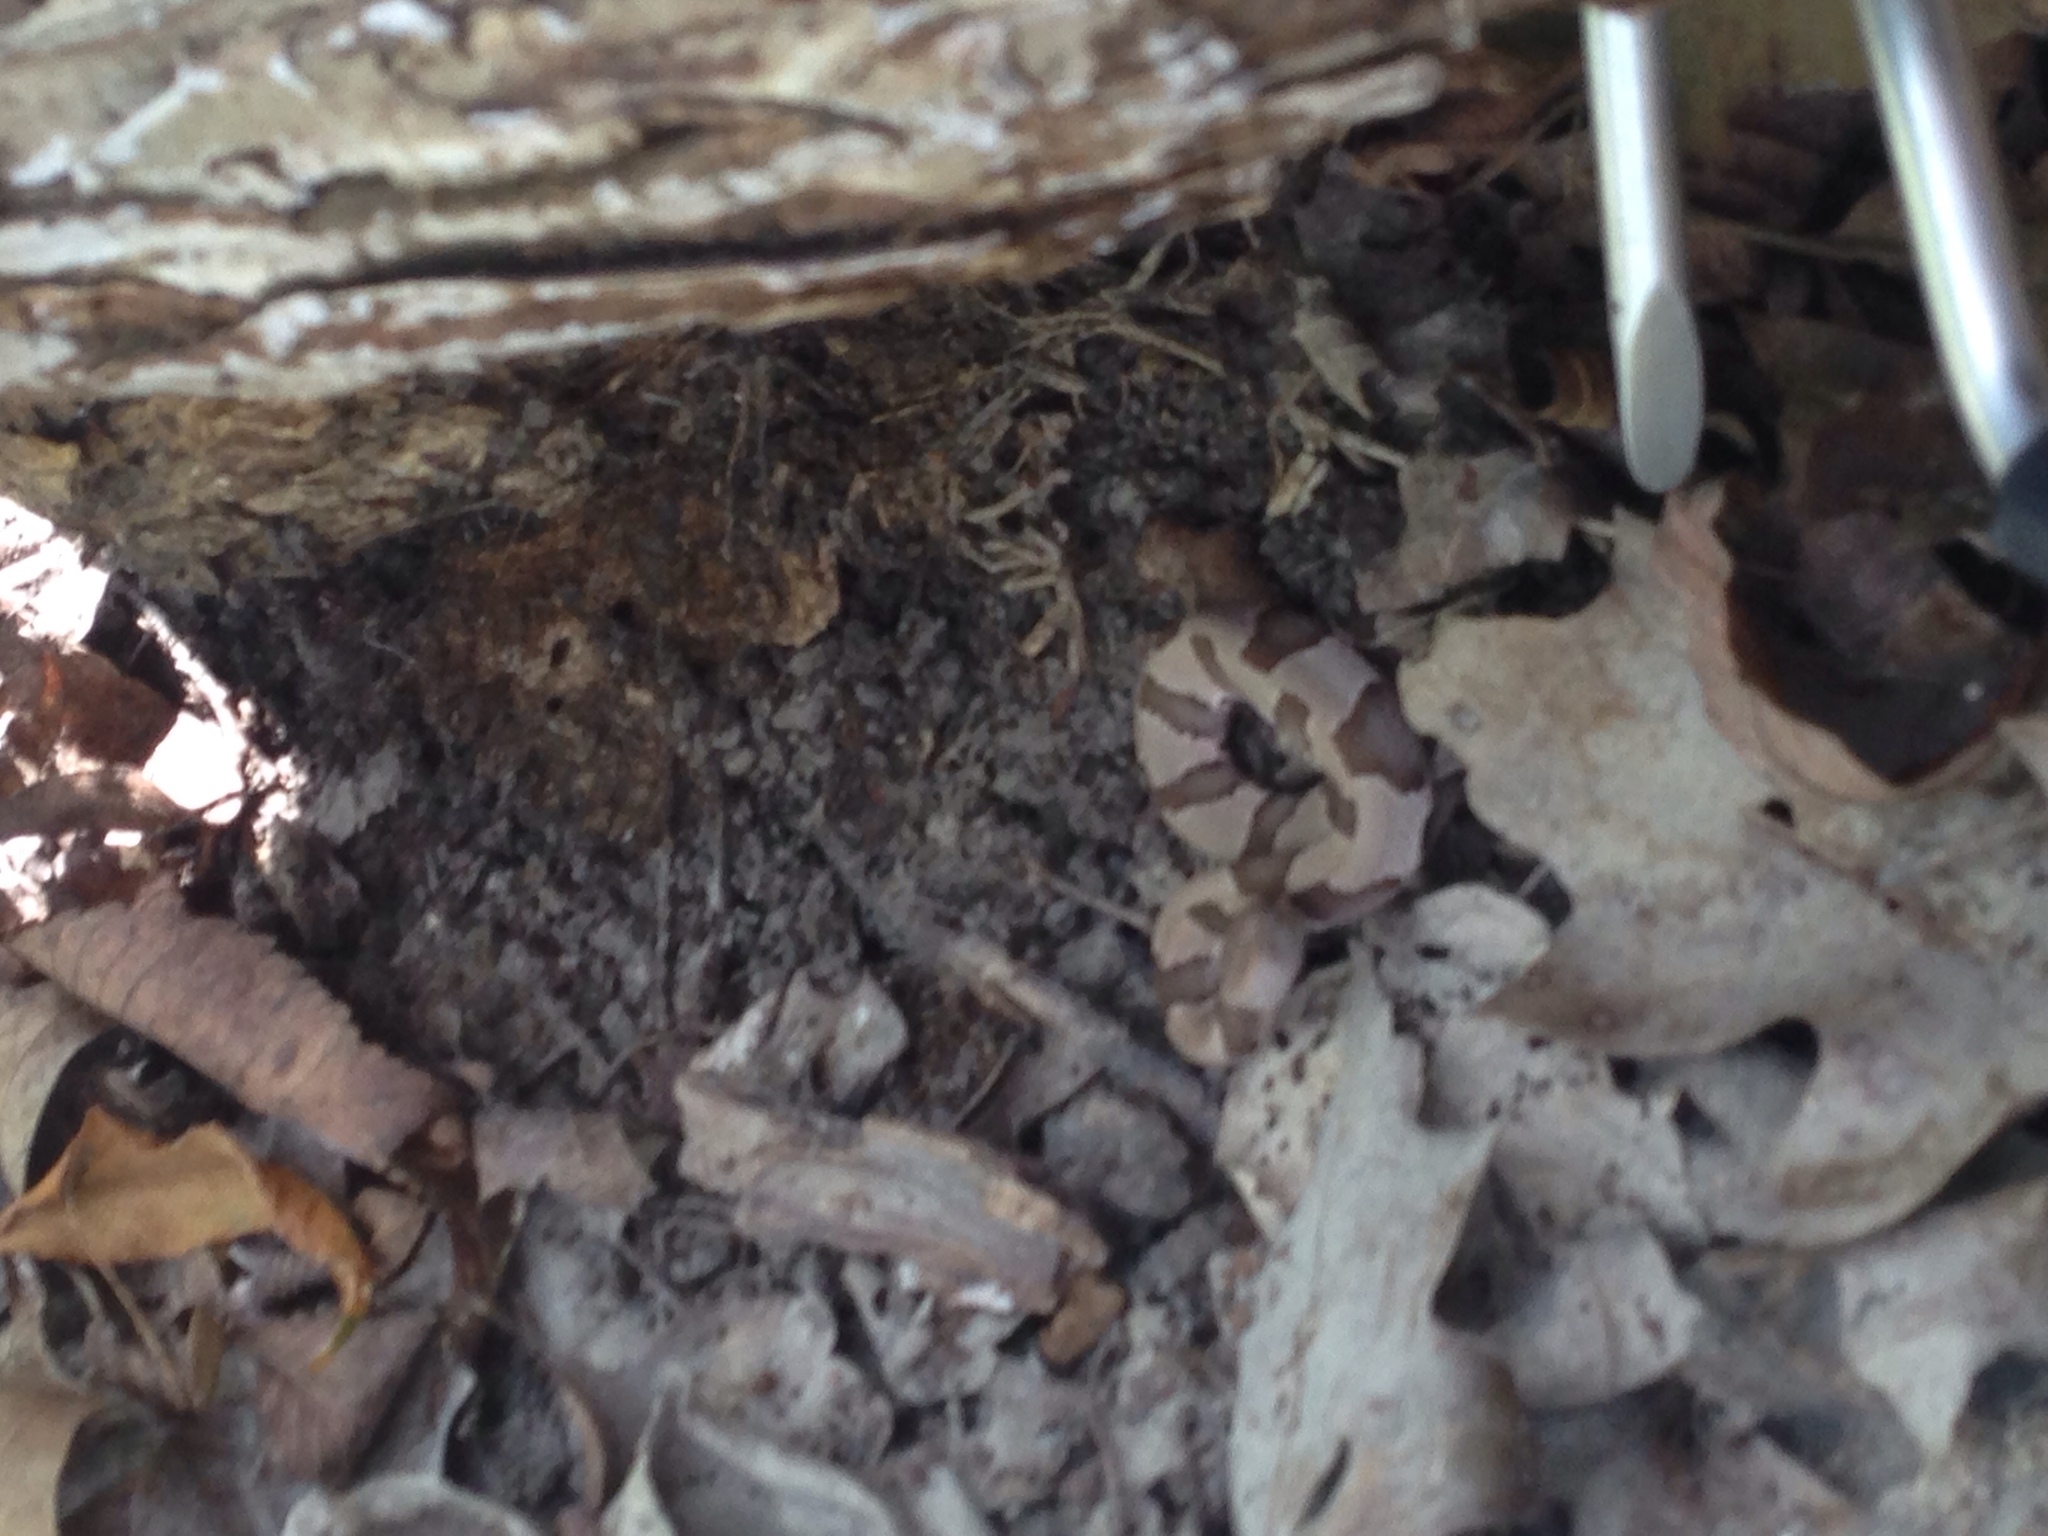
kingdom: Animalia
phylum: Chordata
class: Squamata
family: Viperidae
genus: Agkistrodon
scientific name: Agkistrodon contortrix
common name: Northern copperhead
